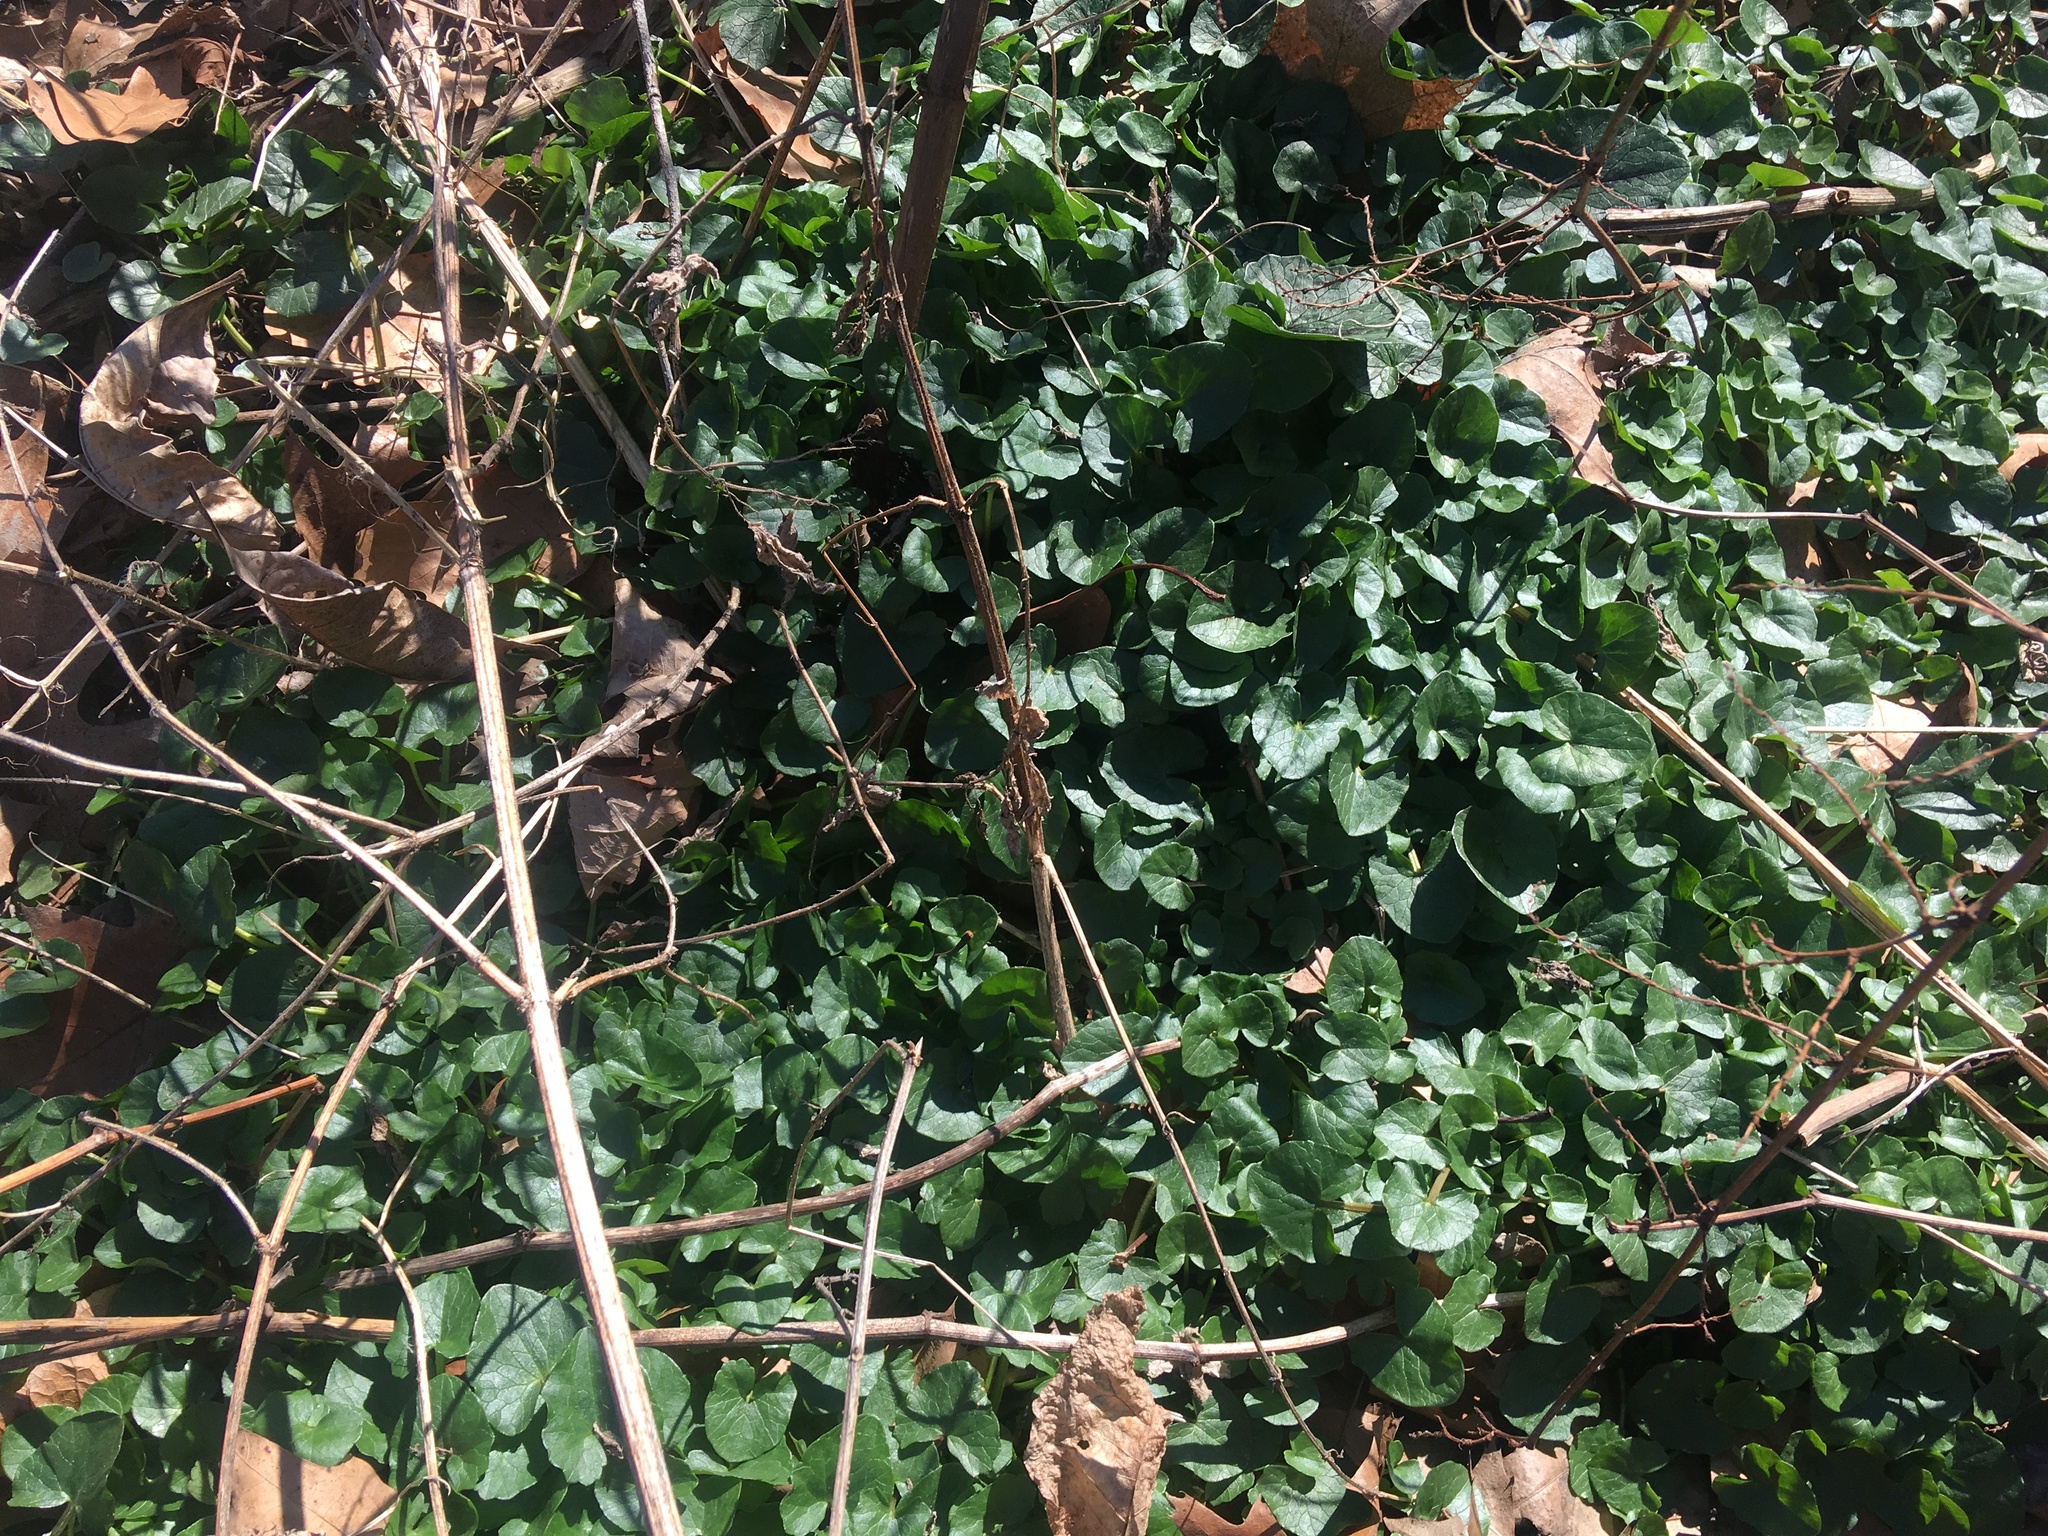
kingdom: Plantae
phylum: Tracheophyta
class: Magnoliopsida
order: Ranunculales
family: Ranunculaceae
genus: Ficaria
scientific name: Ficaria verna
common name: Lesser celandine
